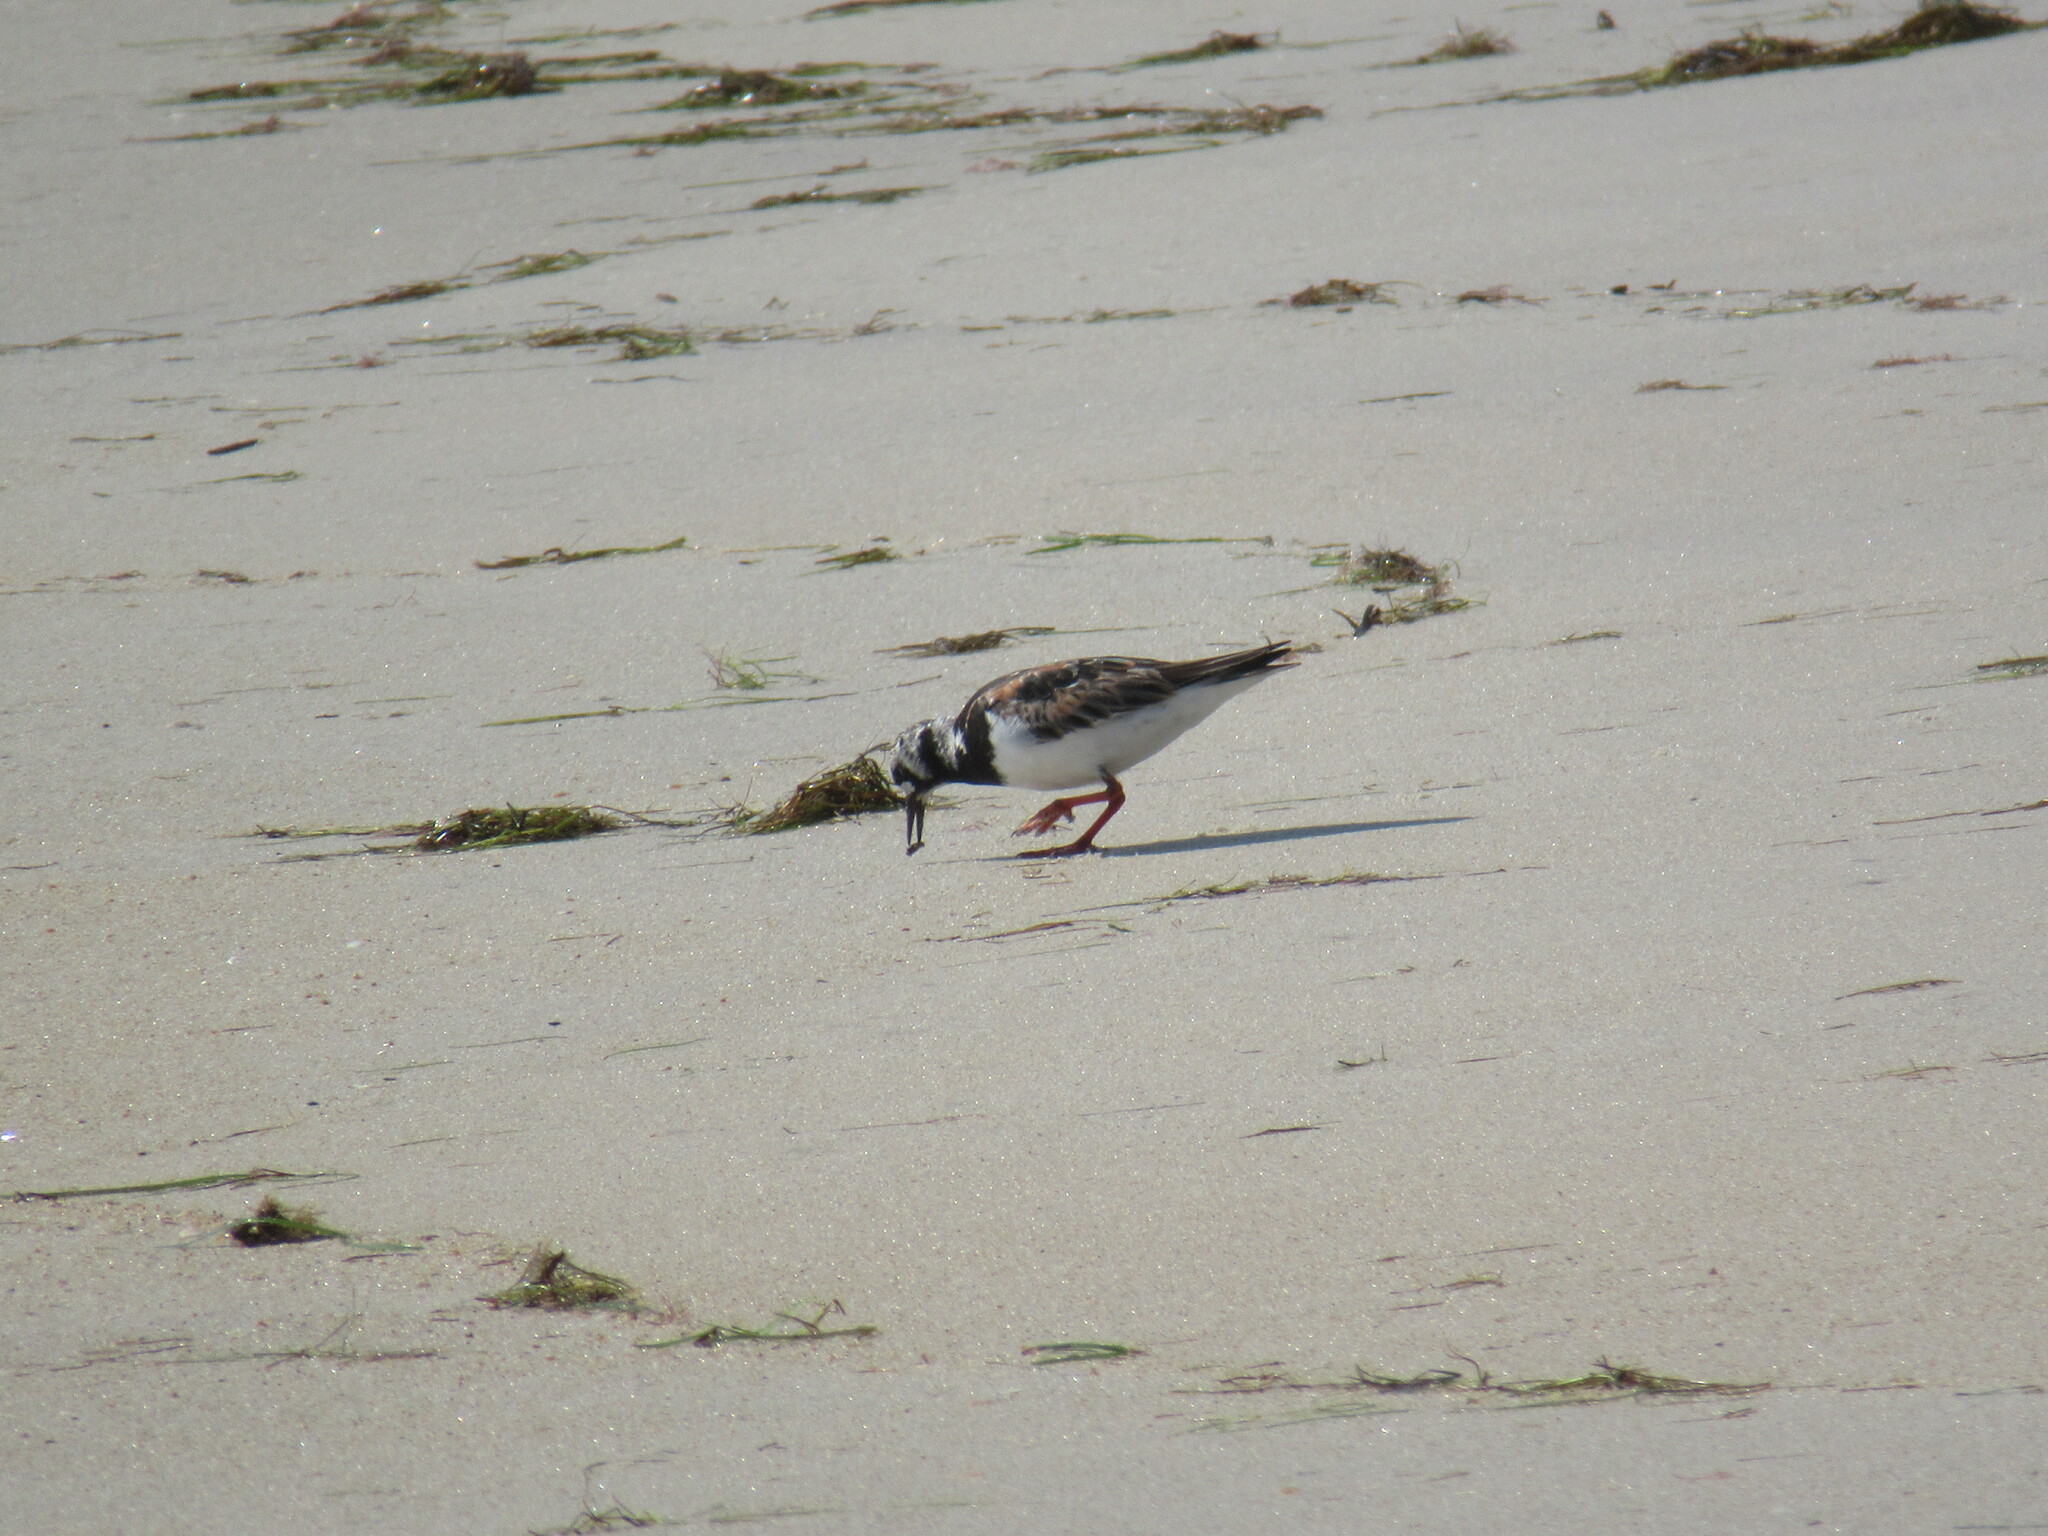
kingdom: Animalia
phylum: Chordata
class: Aves
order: Charadriiformes
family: Scolopacidae
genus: Arenaria
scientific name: Arenaria interpres
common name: Ruddy turnstone
